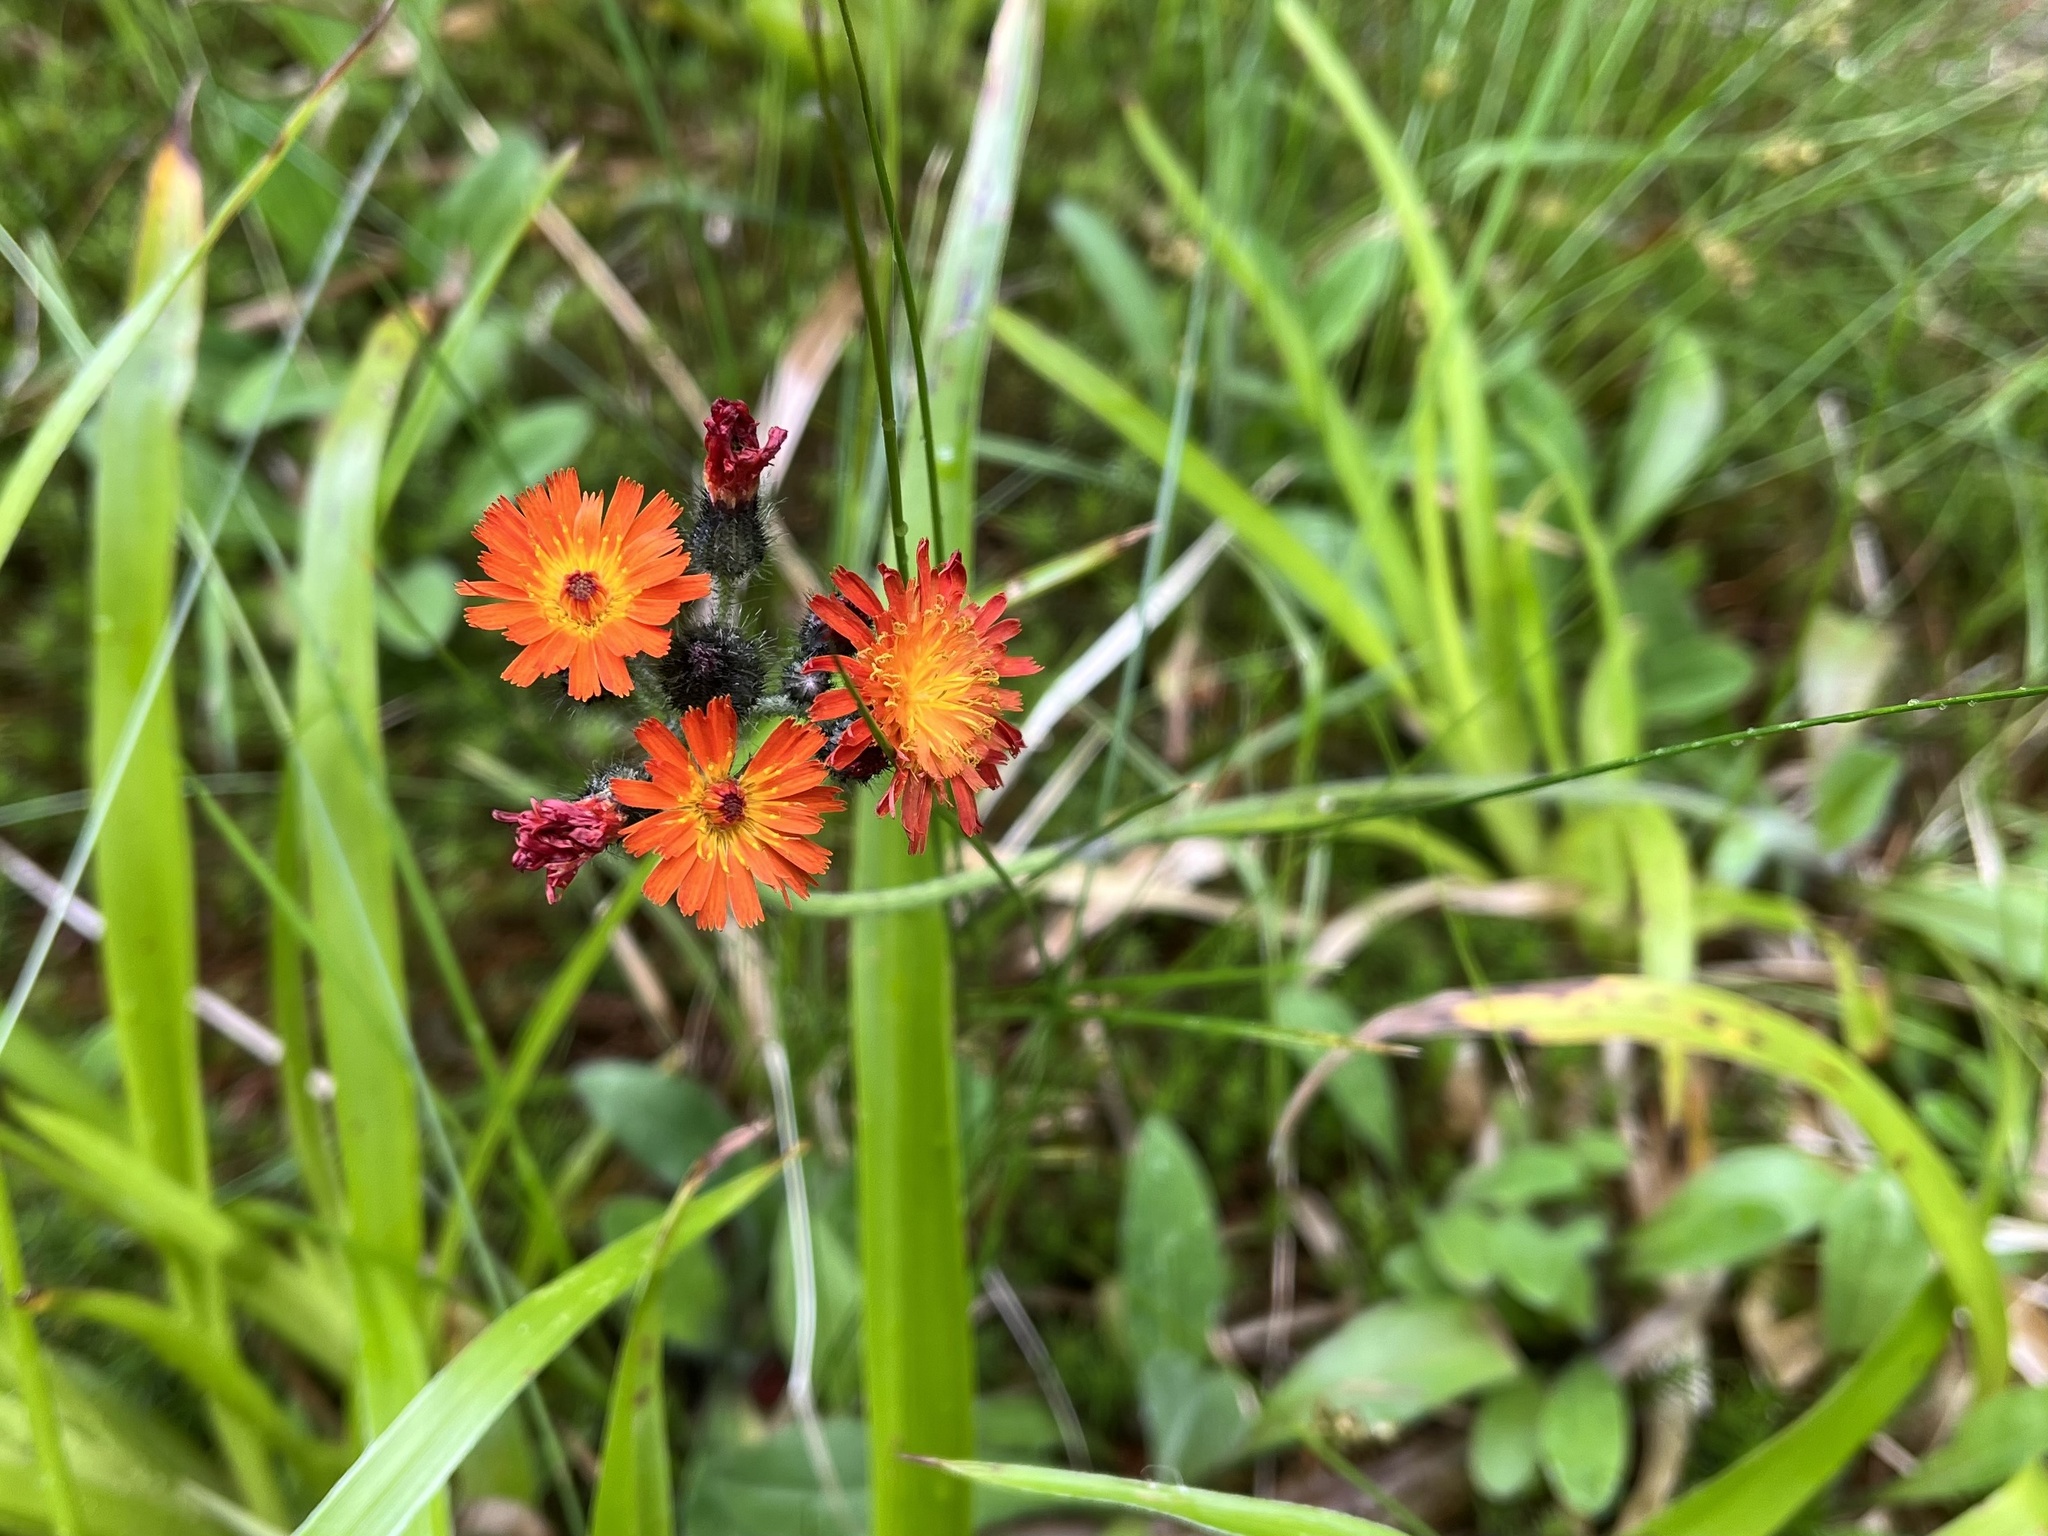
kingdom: Plantae
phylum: Tracheophyta
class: Magnoliopsida
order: Asterales
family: Asteraceae
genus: Pilosella
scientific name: Pilosella aurantiaca
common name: Fox-and-cubs
